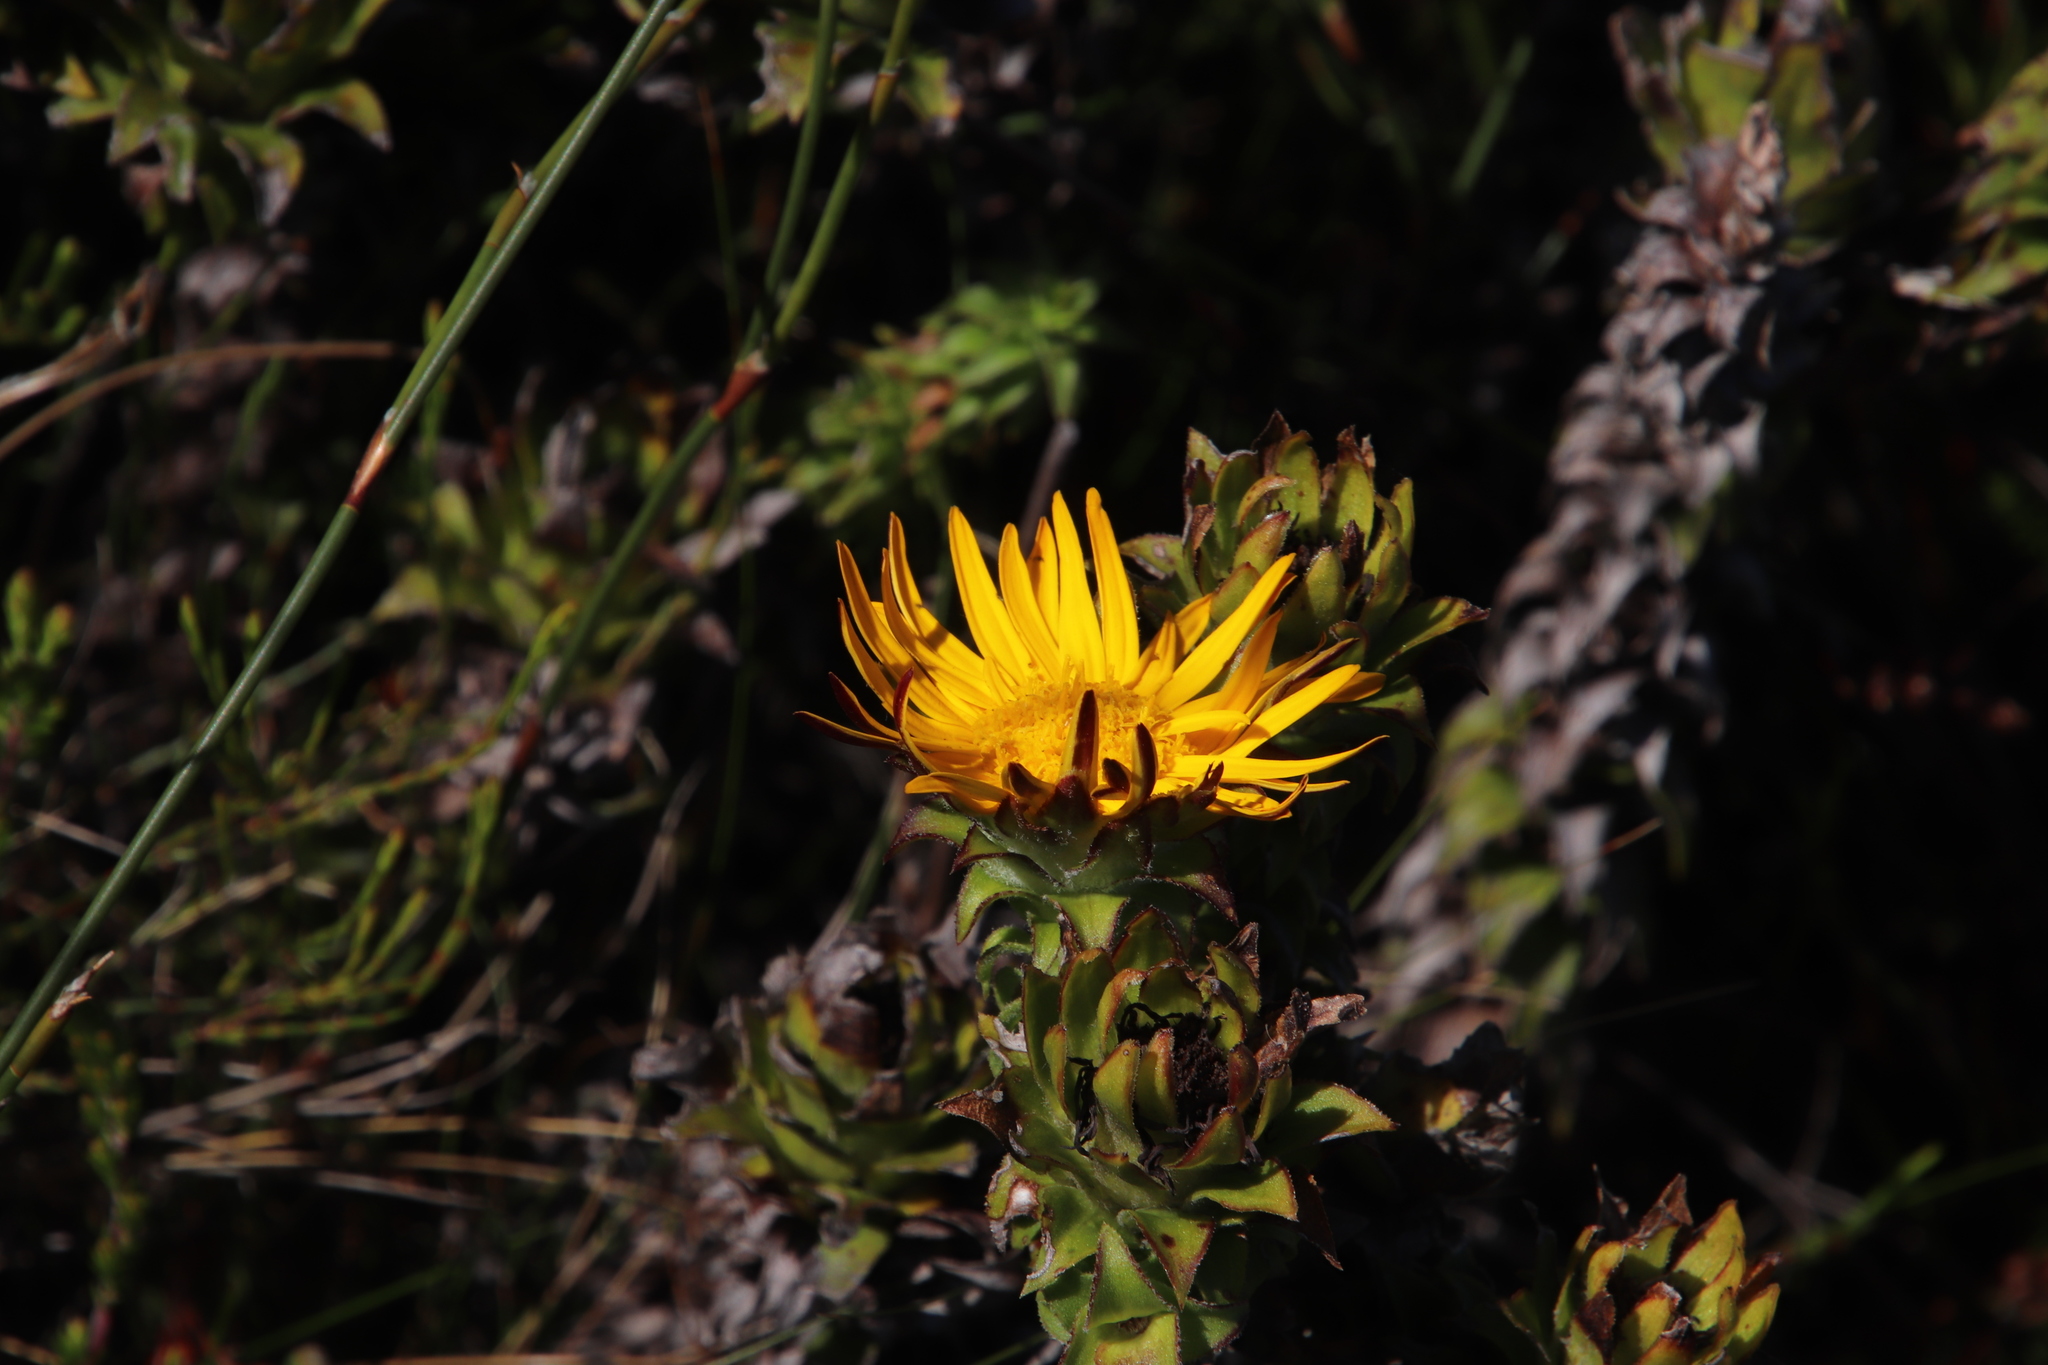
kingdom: Plantae
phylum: Tracheophyta
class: Magnoliopsida
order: Asterales
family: Asteraceae
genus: Oedera
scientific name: Oedera imbricata
